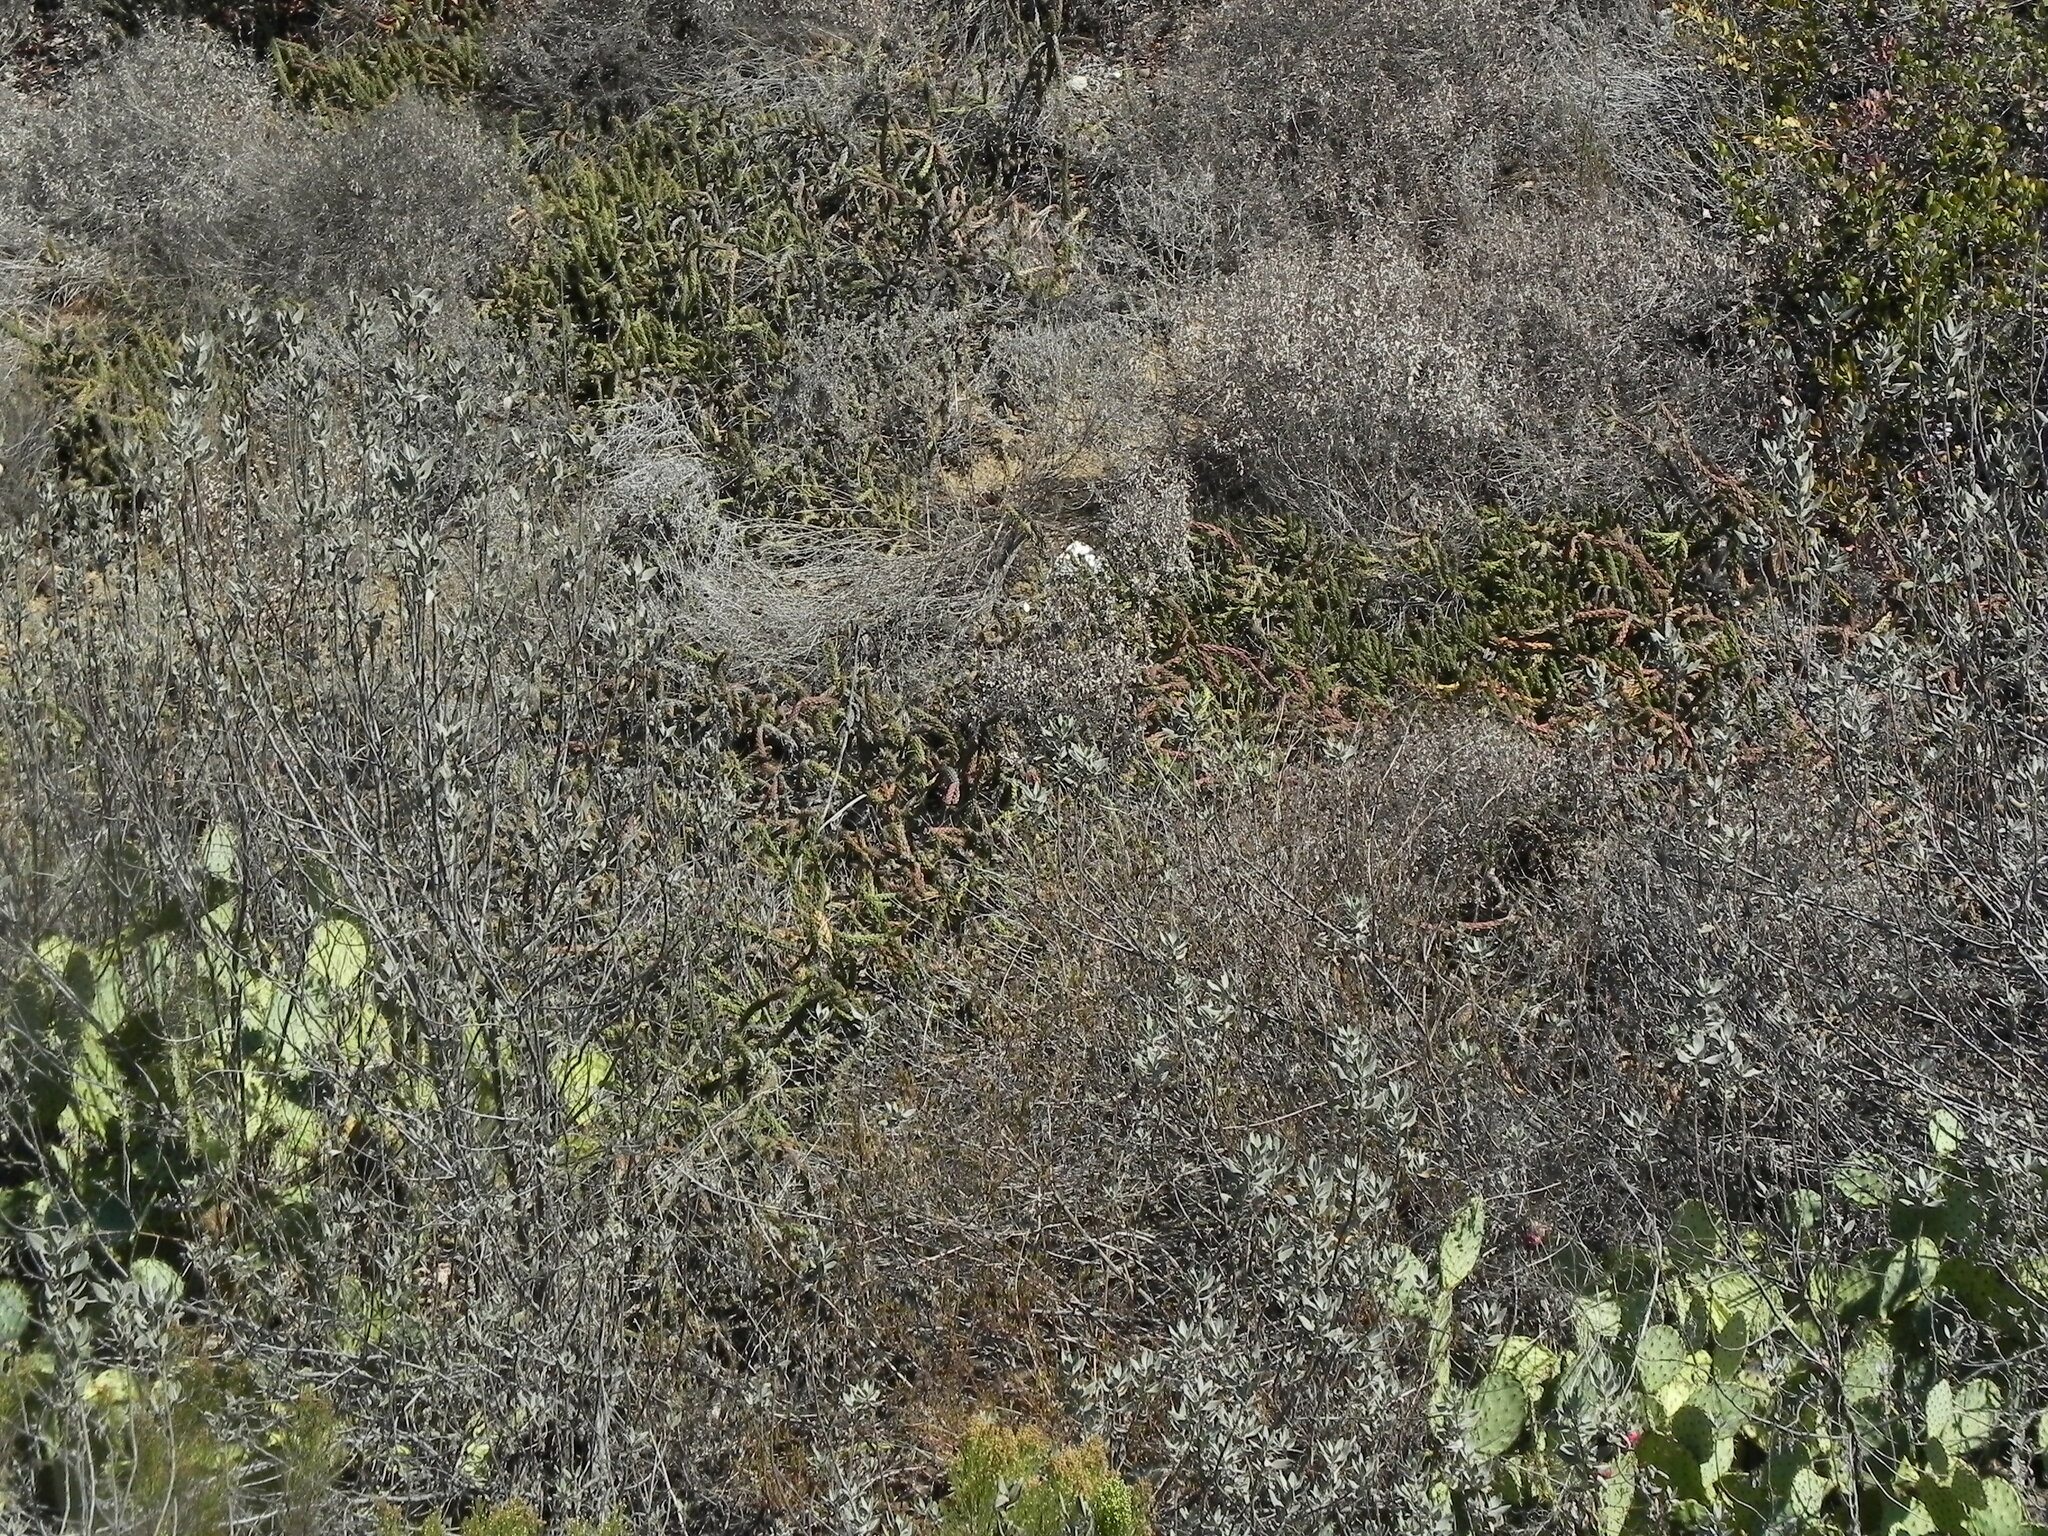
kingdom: Plantae
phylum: Tracheophyta
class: Magnoliopsida
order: Caryophyllales
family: Cactaceae
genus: Cylindropuntia
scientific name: Cylindropuntia californica
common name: Snake cholla
